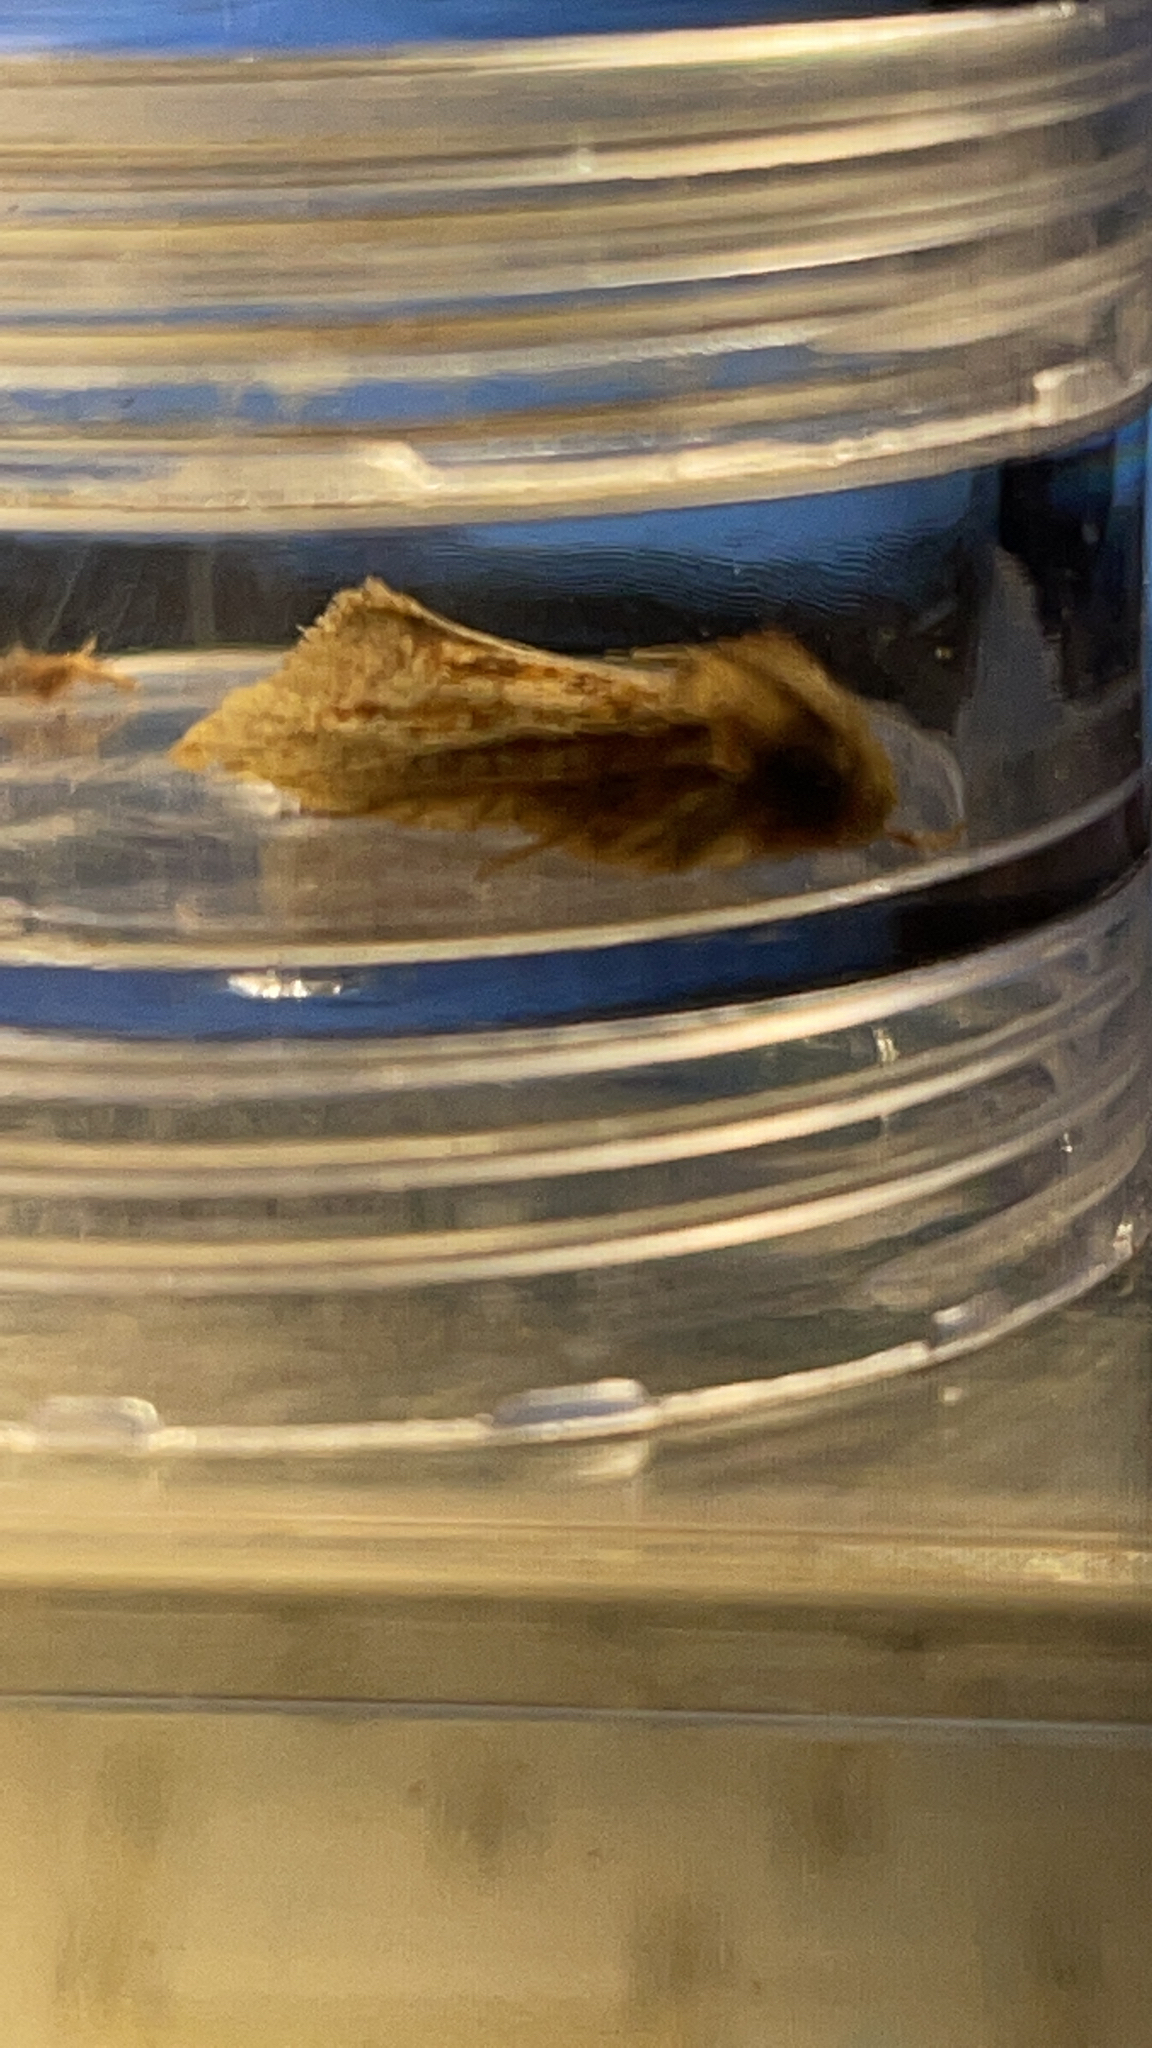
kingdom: Animalia
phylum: Arthropoda
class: Insecta
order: Lepidoptera
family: Tineidae
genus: Acrolophus
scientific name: Acrolophus plumifrontella
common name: Eastern grass tubeworm moth
